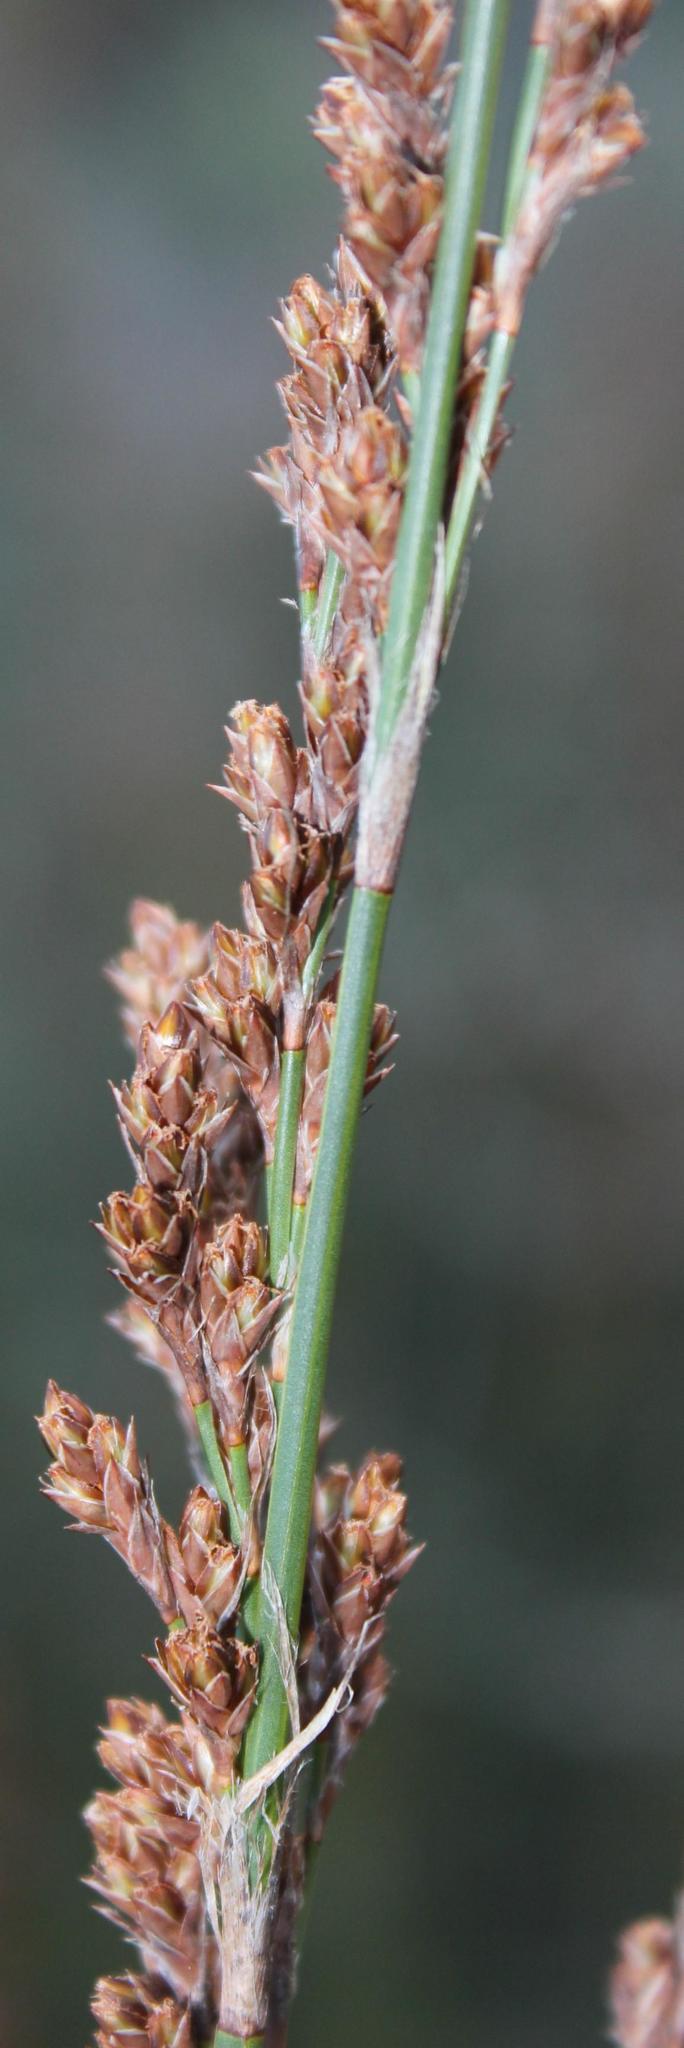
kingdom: Plantae
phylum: Tracheophyta
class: Liliopsida
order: Poales
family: Restionaceae
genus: Restio
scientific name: Restio tetragonus
